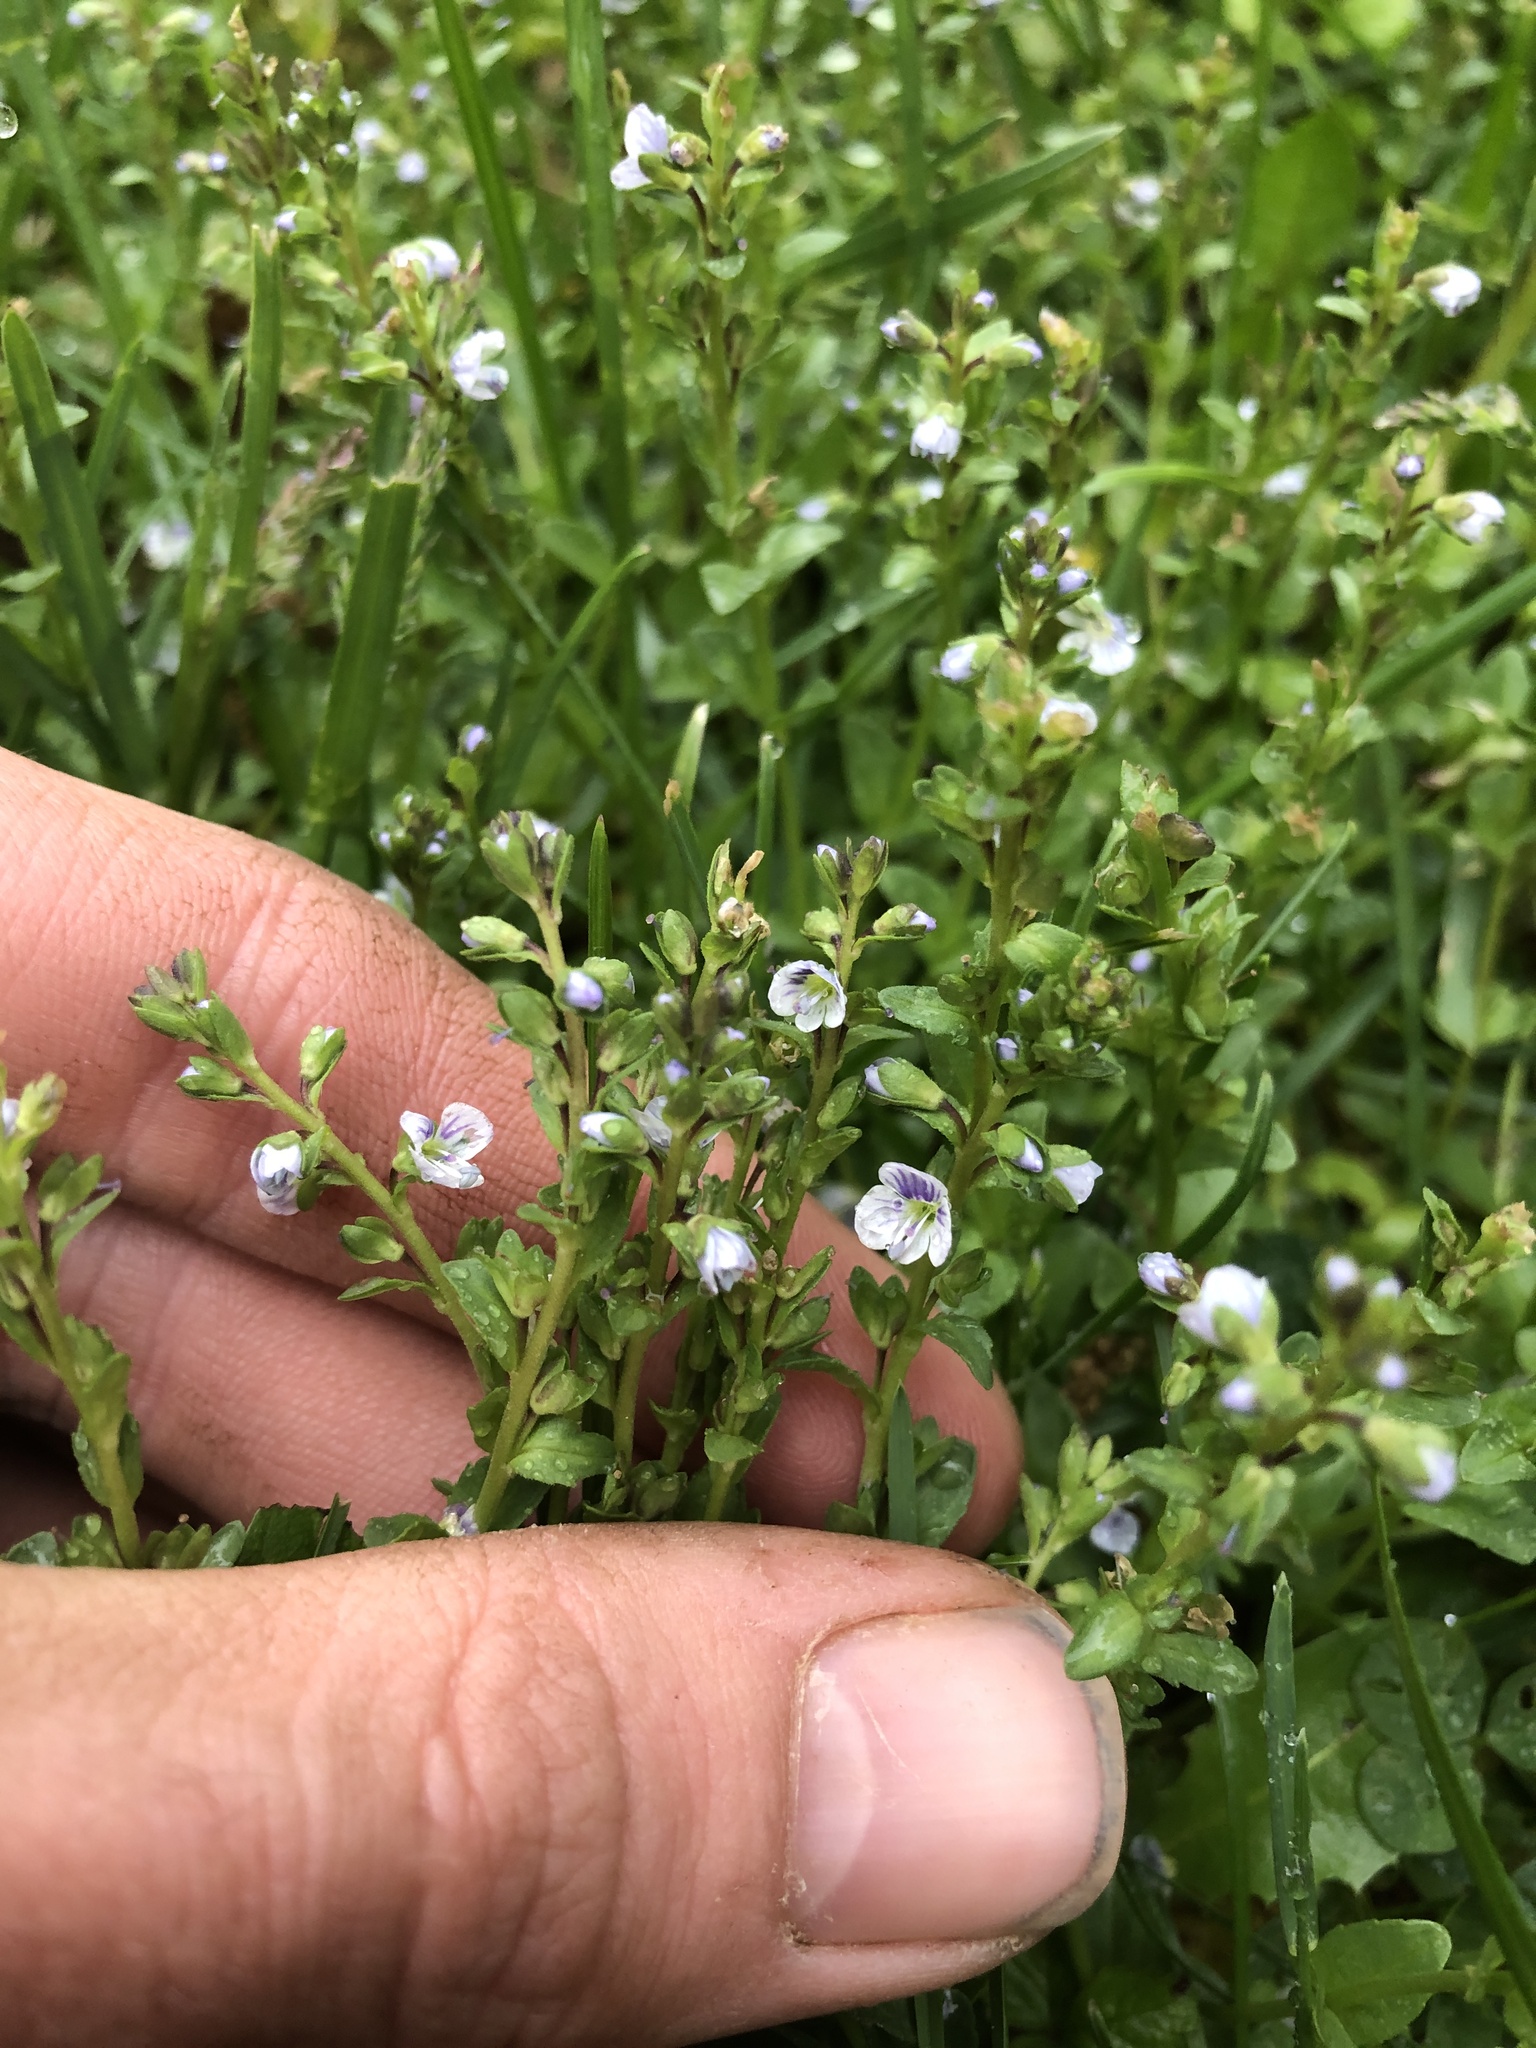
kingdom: Plantae
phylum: Tracheophyta
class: Magnoliopsida
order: Lamiales
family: Plantaginaceae
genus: Veronica
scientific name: Veronica serpyllifolia
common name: Thyme-leaved speedwell
